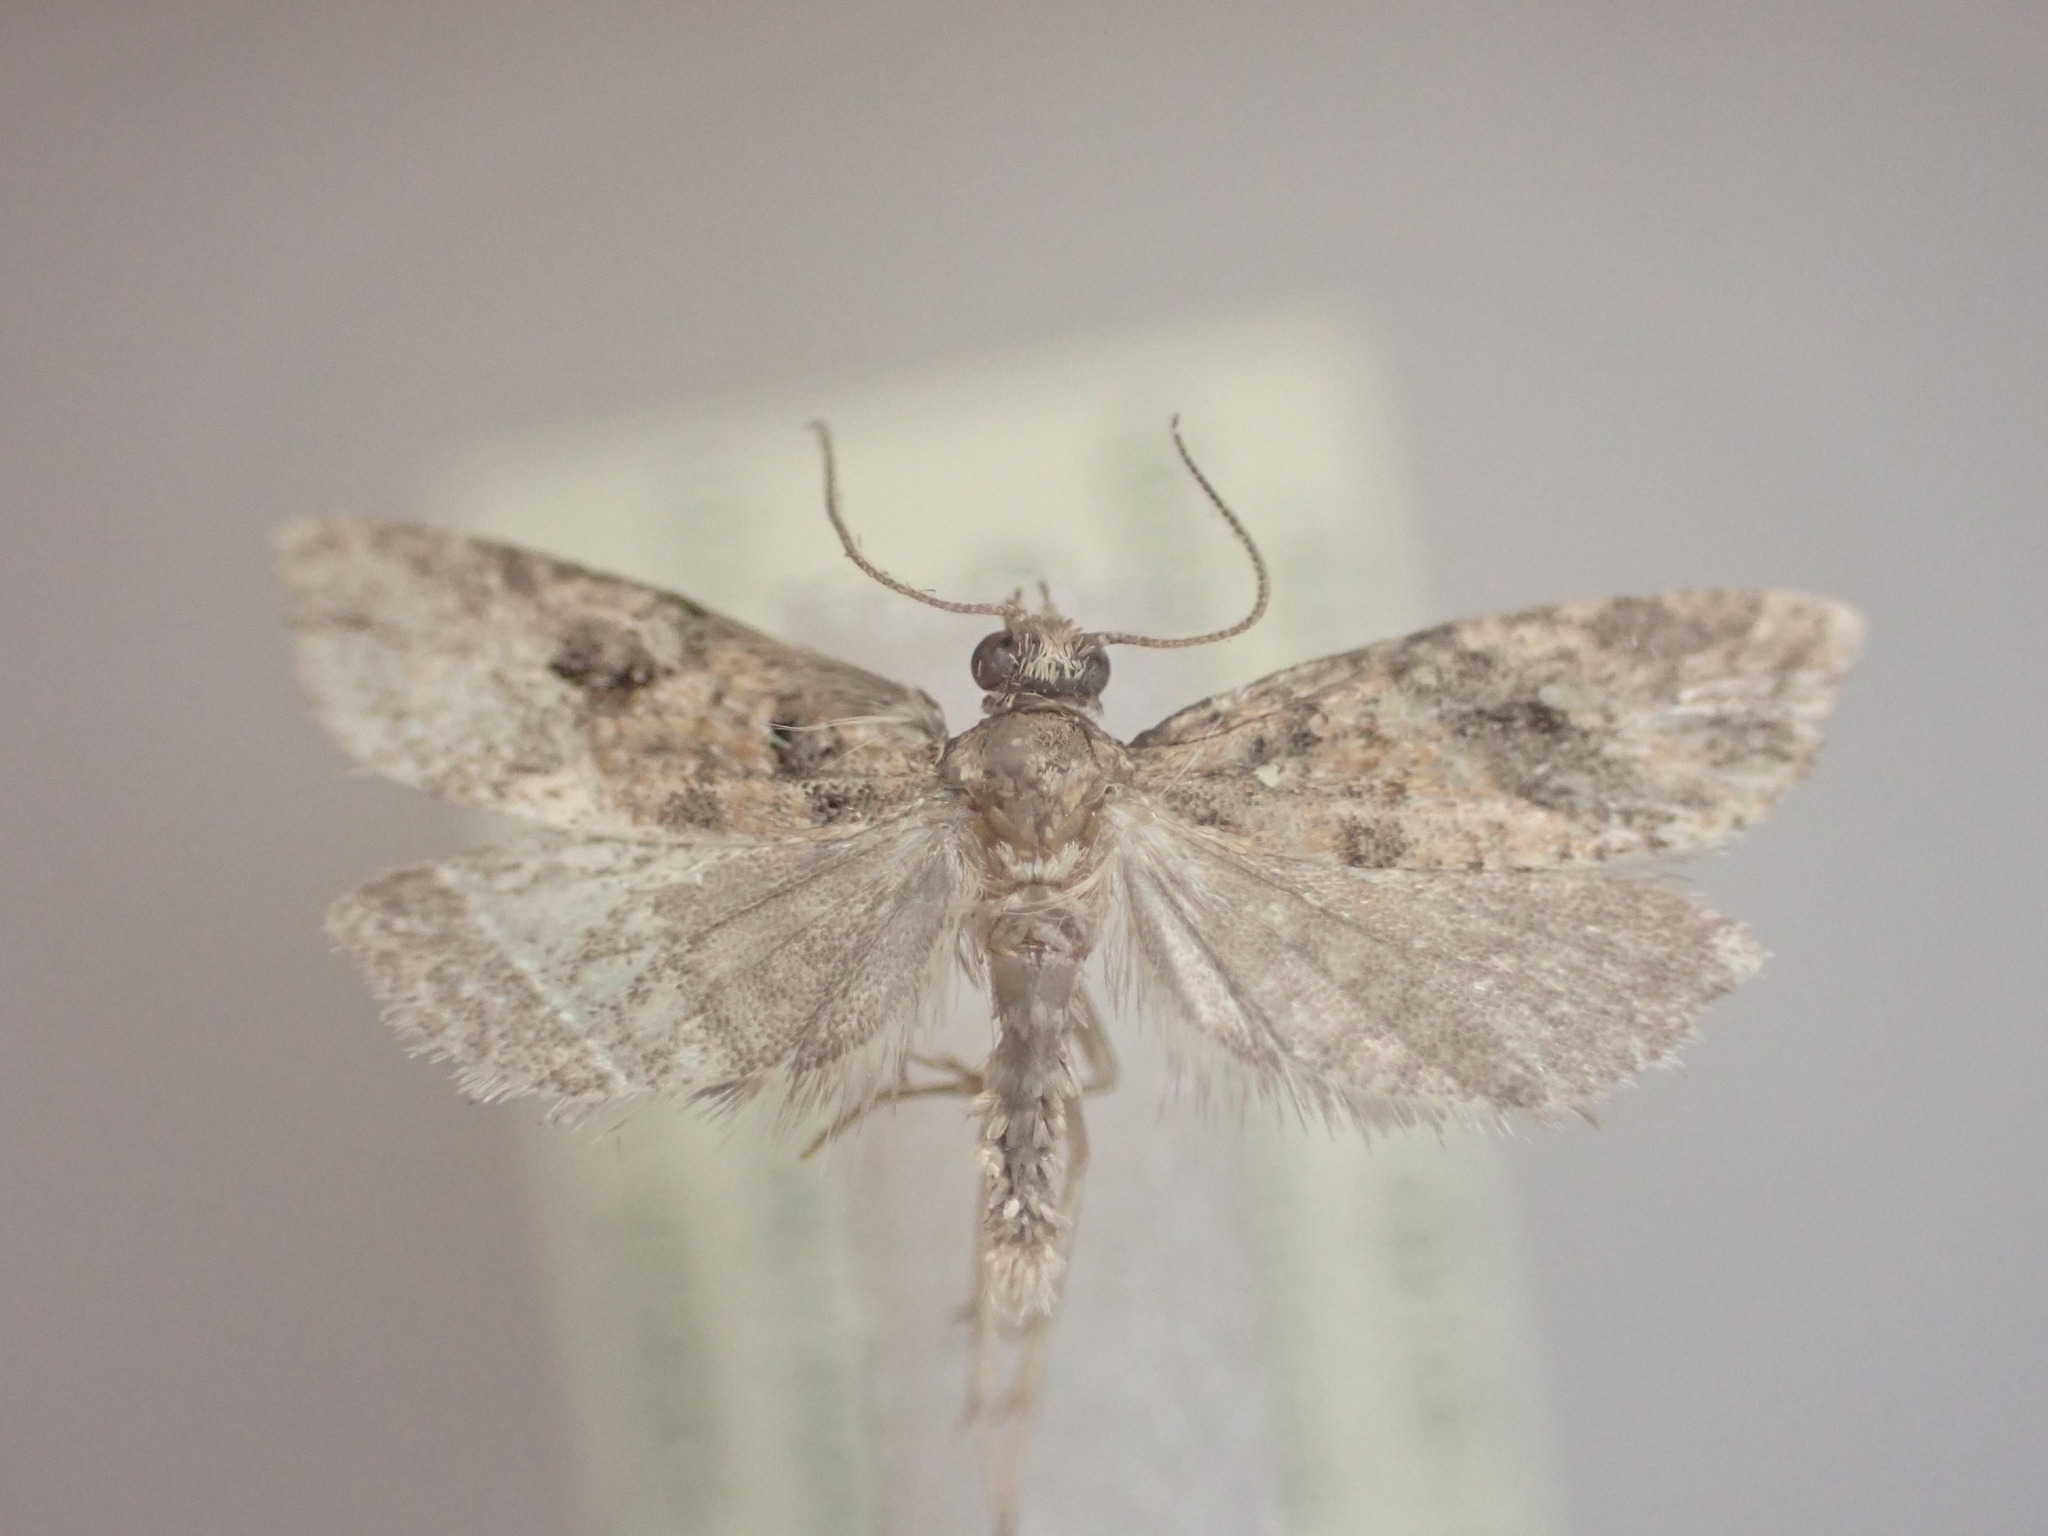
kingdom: Animalia
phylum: Arthropoda
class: Insecta
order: Lepidoptera
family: Tortricidae
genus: Capua
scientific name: Capua semiferana
